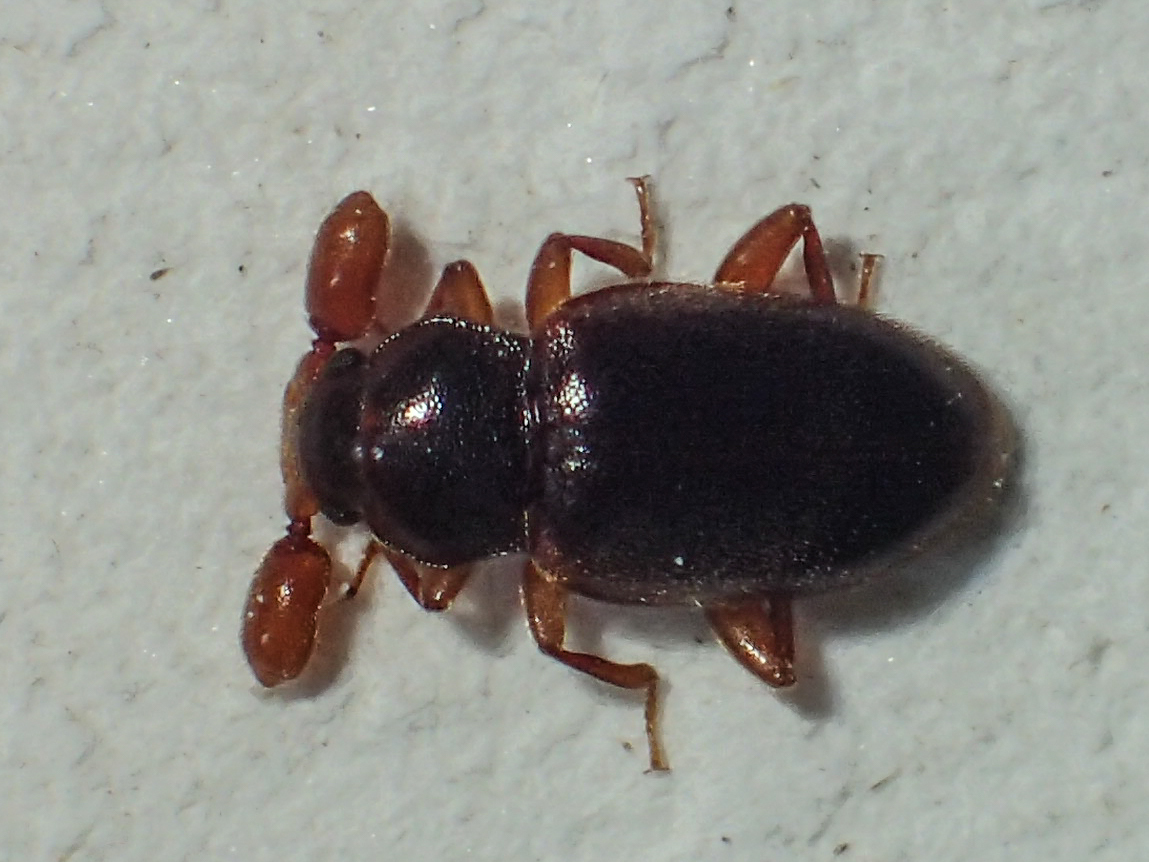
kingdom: Animalia
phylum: Arthropoda
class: Insecta
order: Coleoptera
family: Endomychidae
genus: Trochoideus
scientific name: Trochoideus desjardinsi
